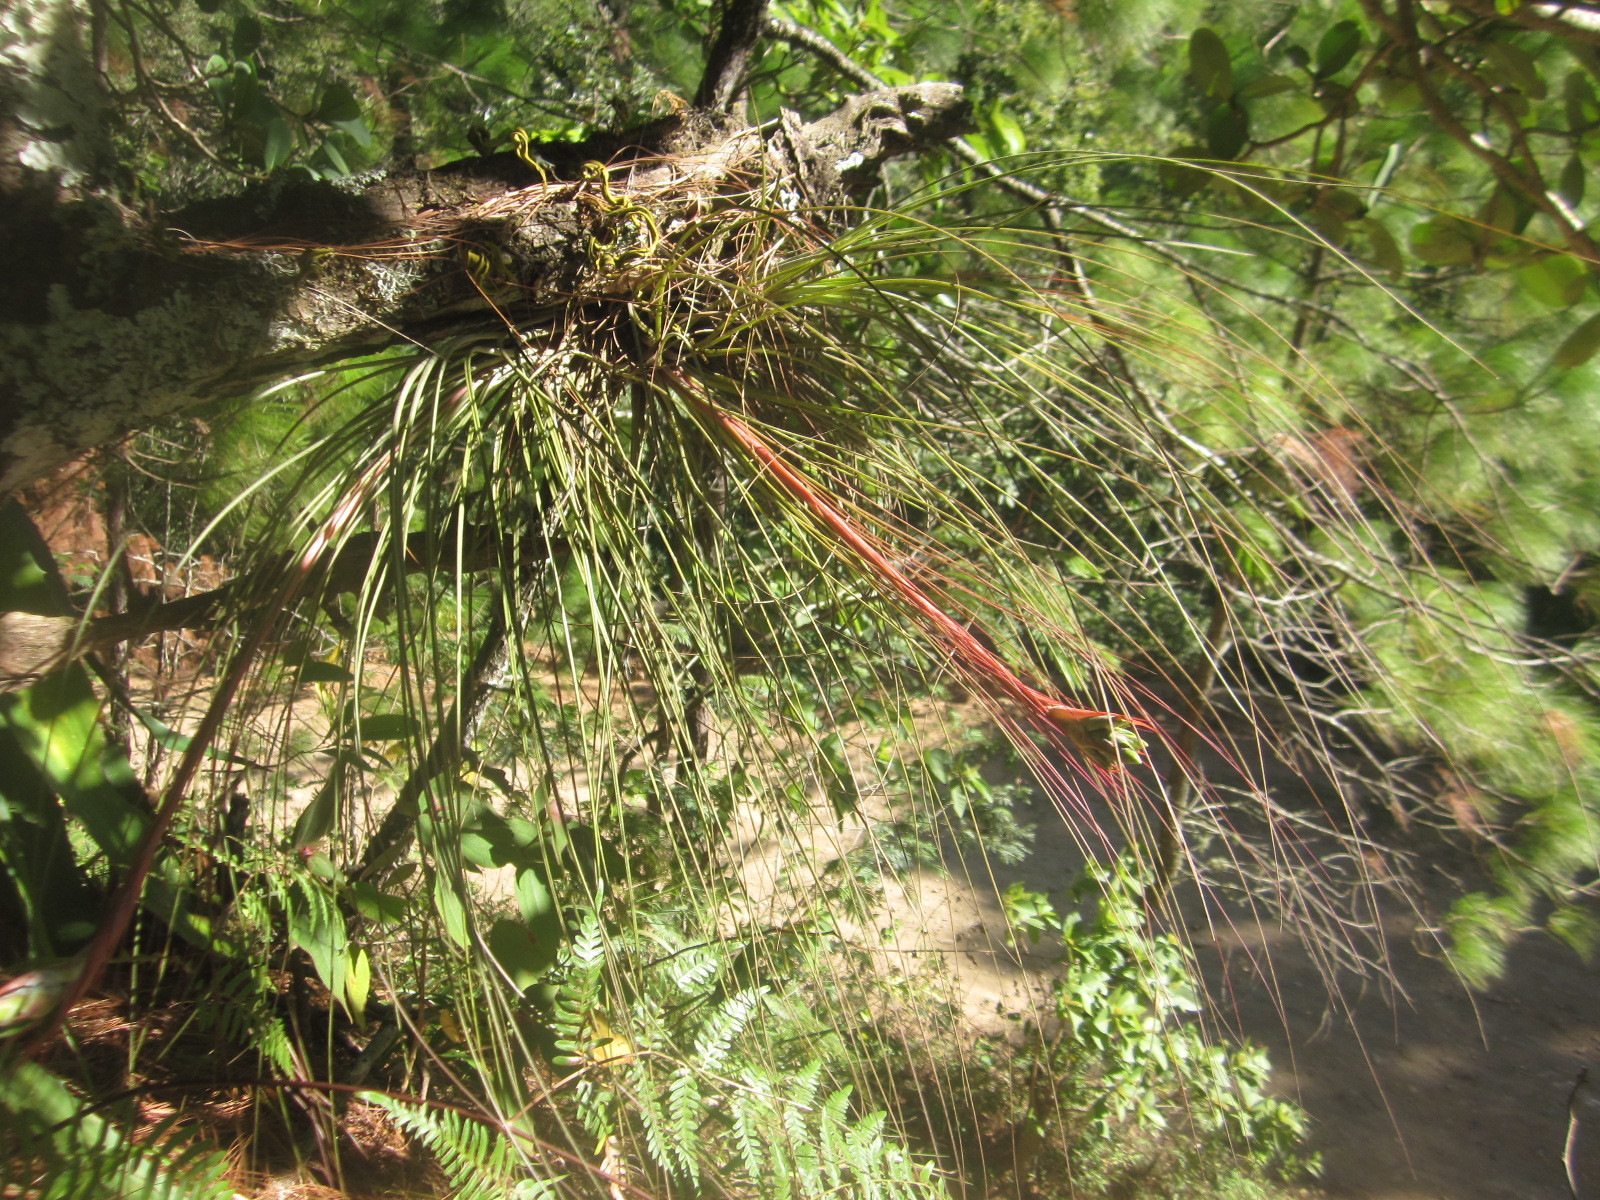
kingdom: Plantae
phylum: Tracheophyta
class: Liliopsida
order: Poales
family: Bromeliaceae
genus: Tillandsia
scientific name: Tillandsia juncea
